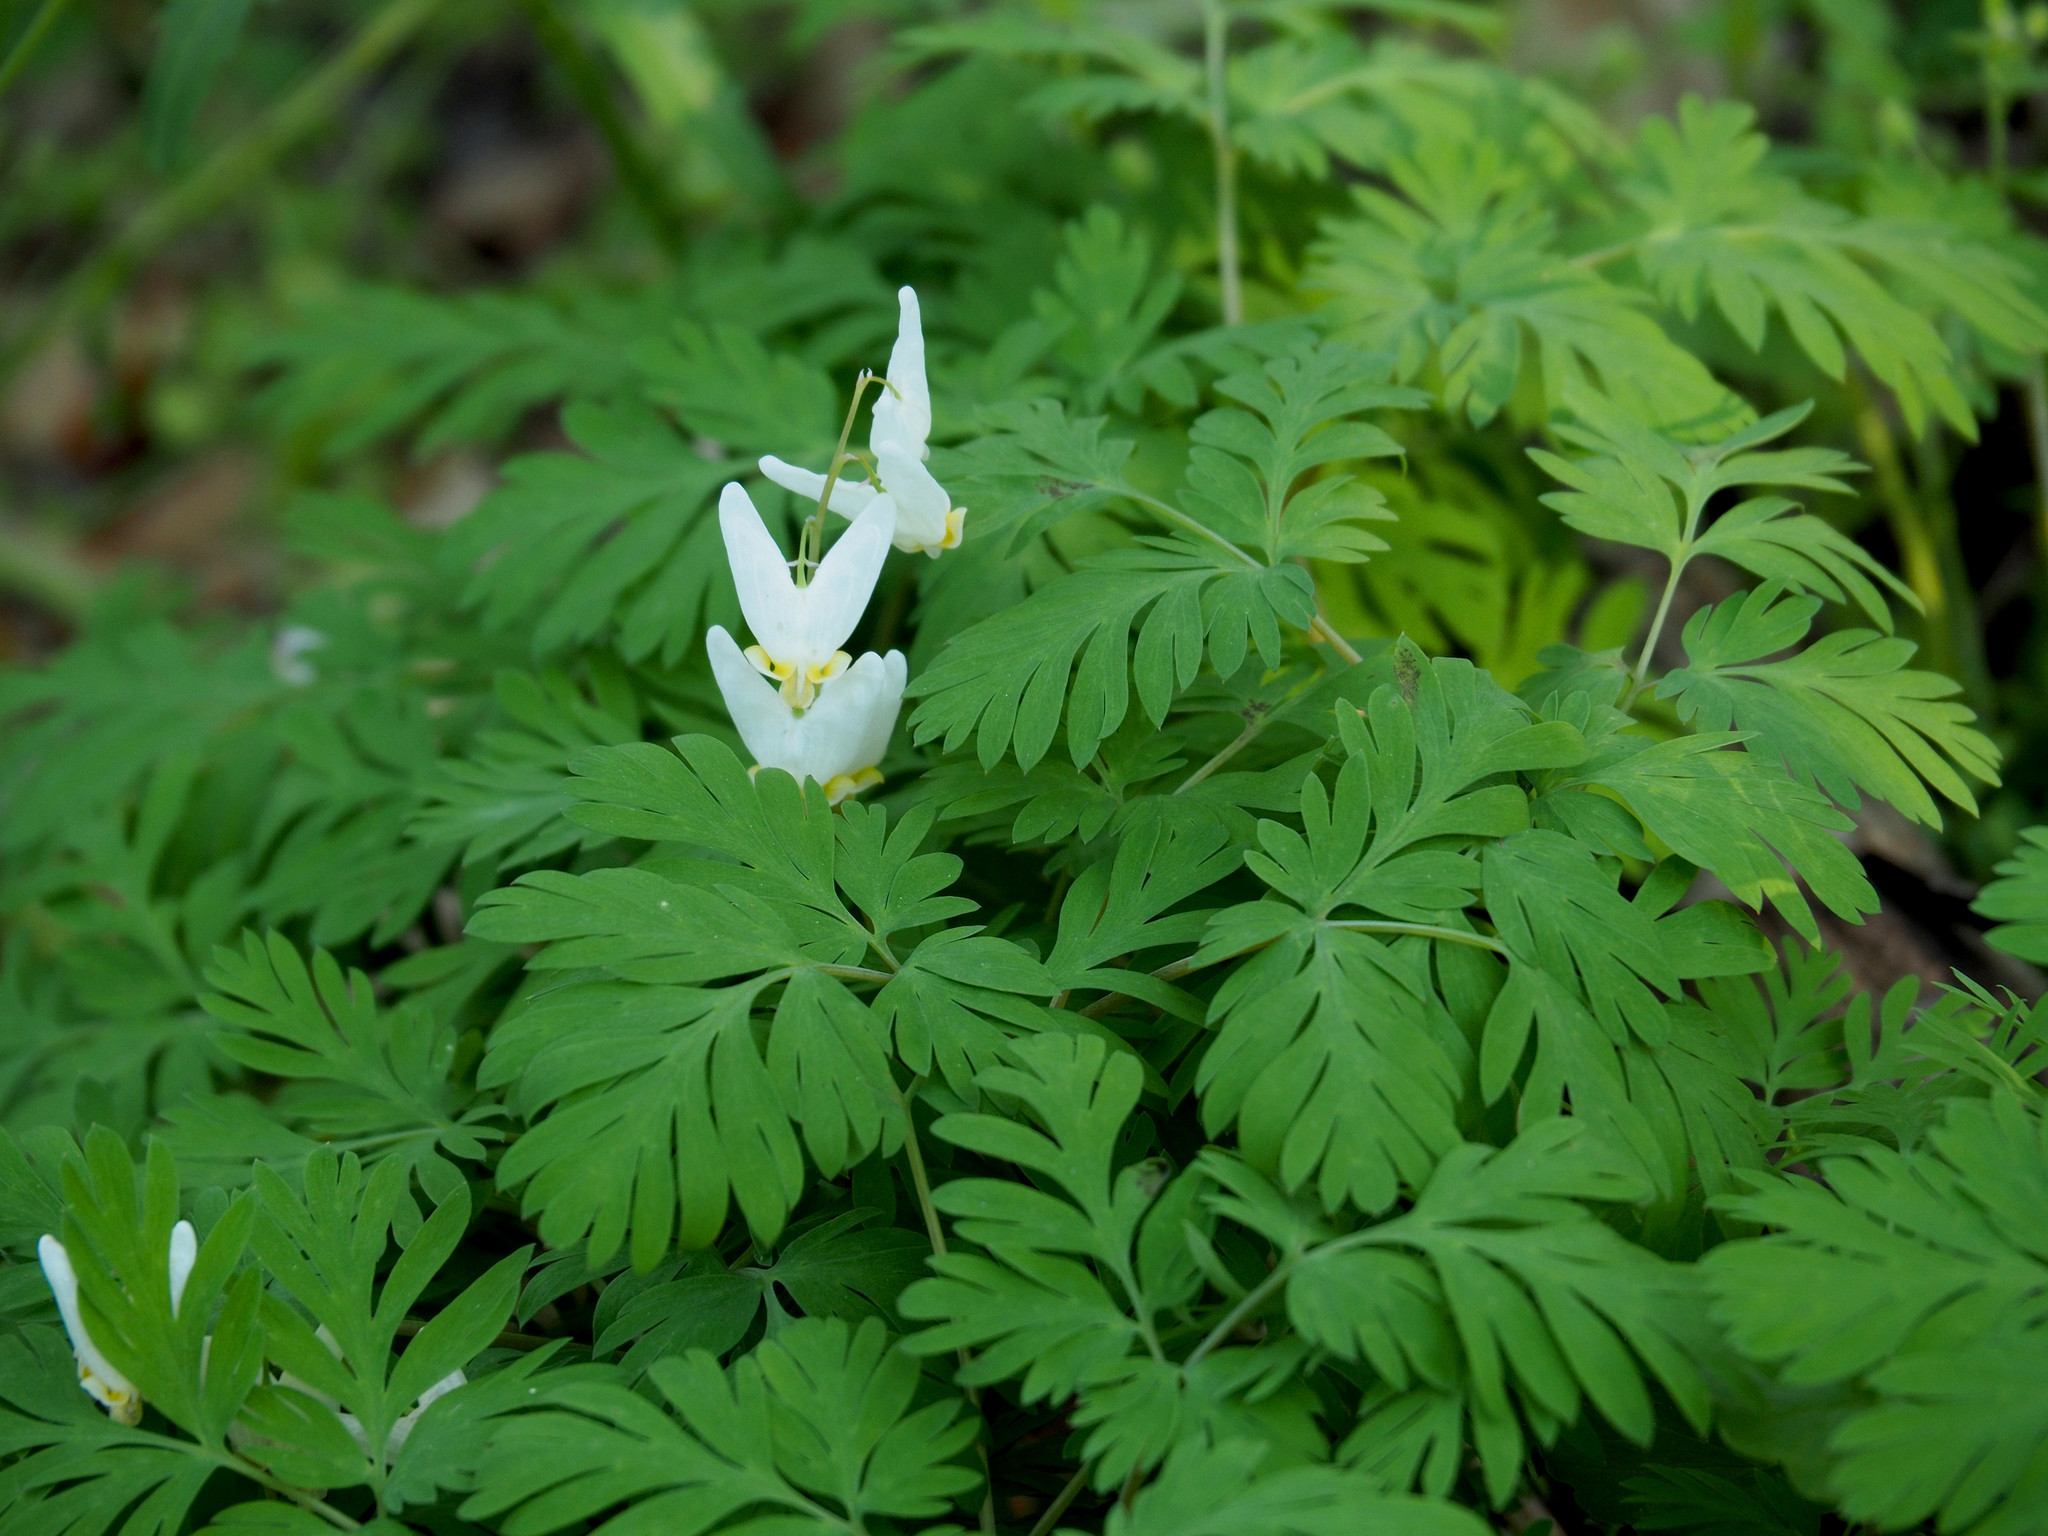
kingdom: Plantae
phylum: Tracheophyta
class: Magnoliopsida
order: Ranunculales
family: Papaveraceae
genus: Dicentra
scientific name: Dicentra cucullaria
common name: Dutchman's breeches
